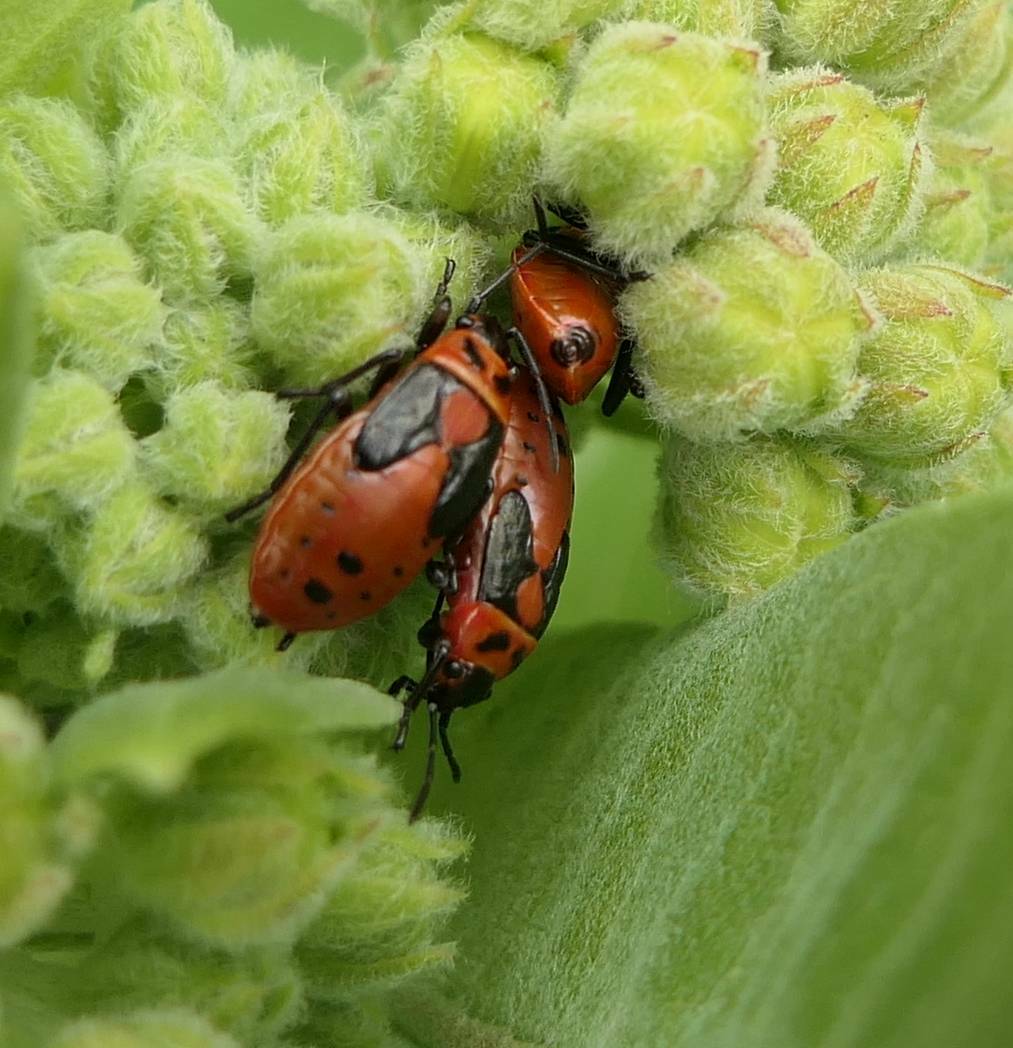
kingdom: Animalia
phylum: Arthropoda
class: Insecta
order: Hemiptera
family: Lygaeidae
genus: Lygaeus
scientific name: Lygaeus kalmii
